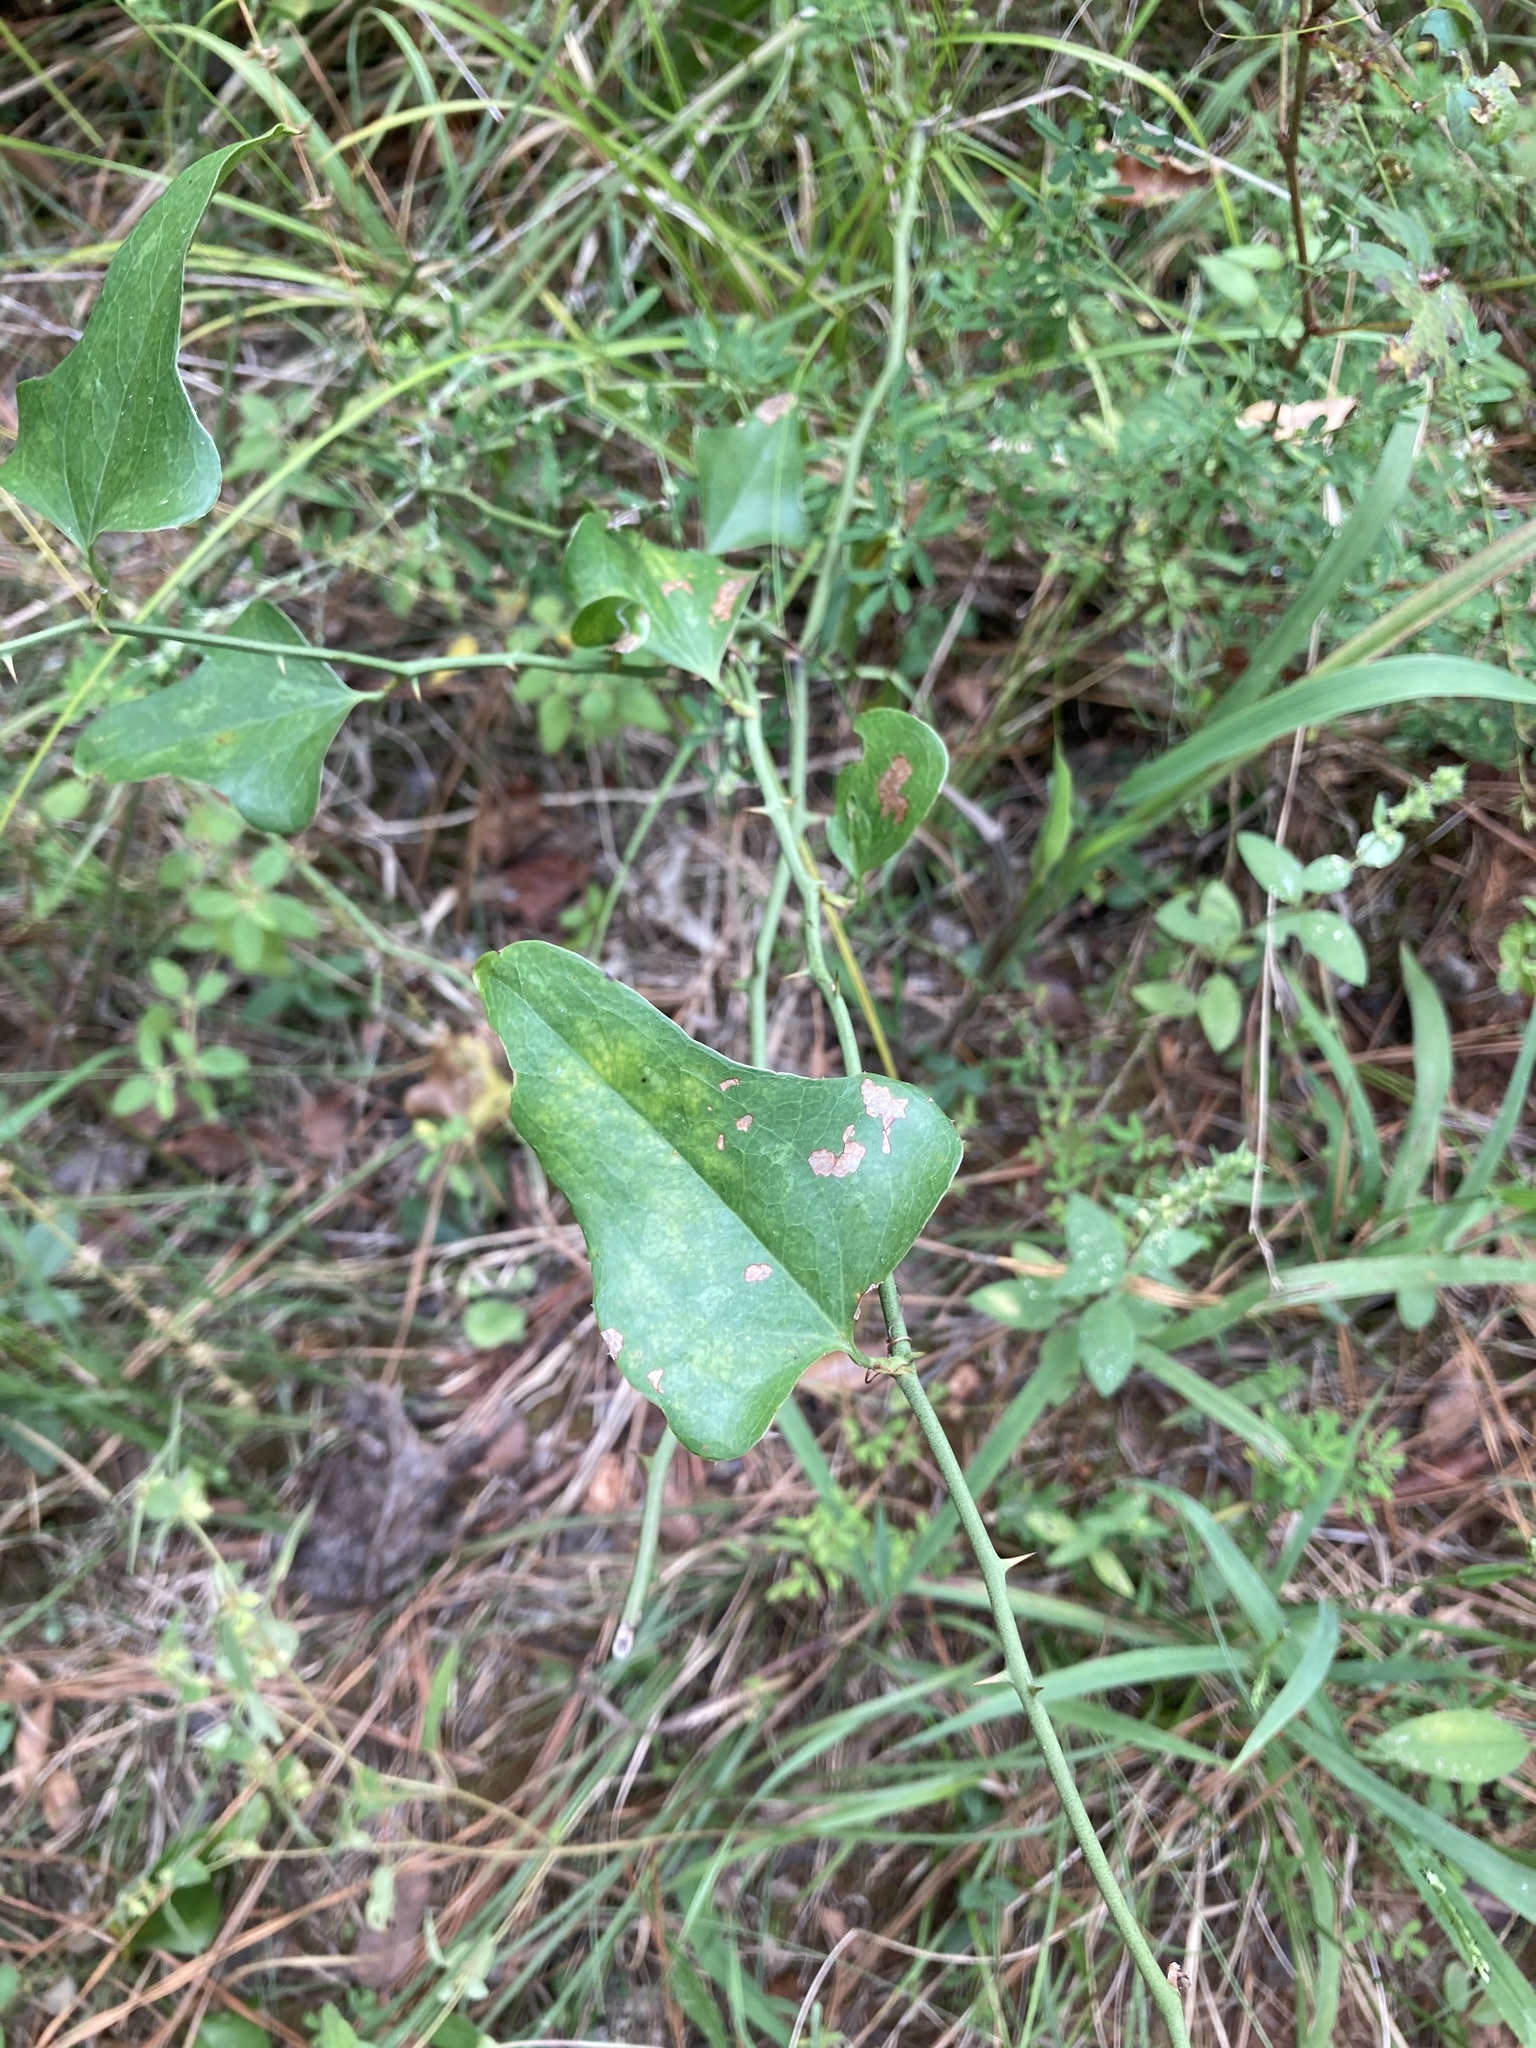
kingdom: Plantae
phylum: Tracheophyta
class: Liliopsida
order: Liliales
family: Smilacaceae
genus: Smilax
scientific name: Smilax bona-nox
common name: Catbrier
